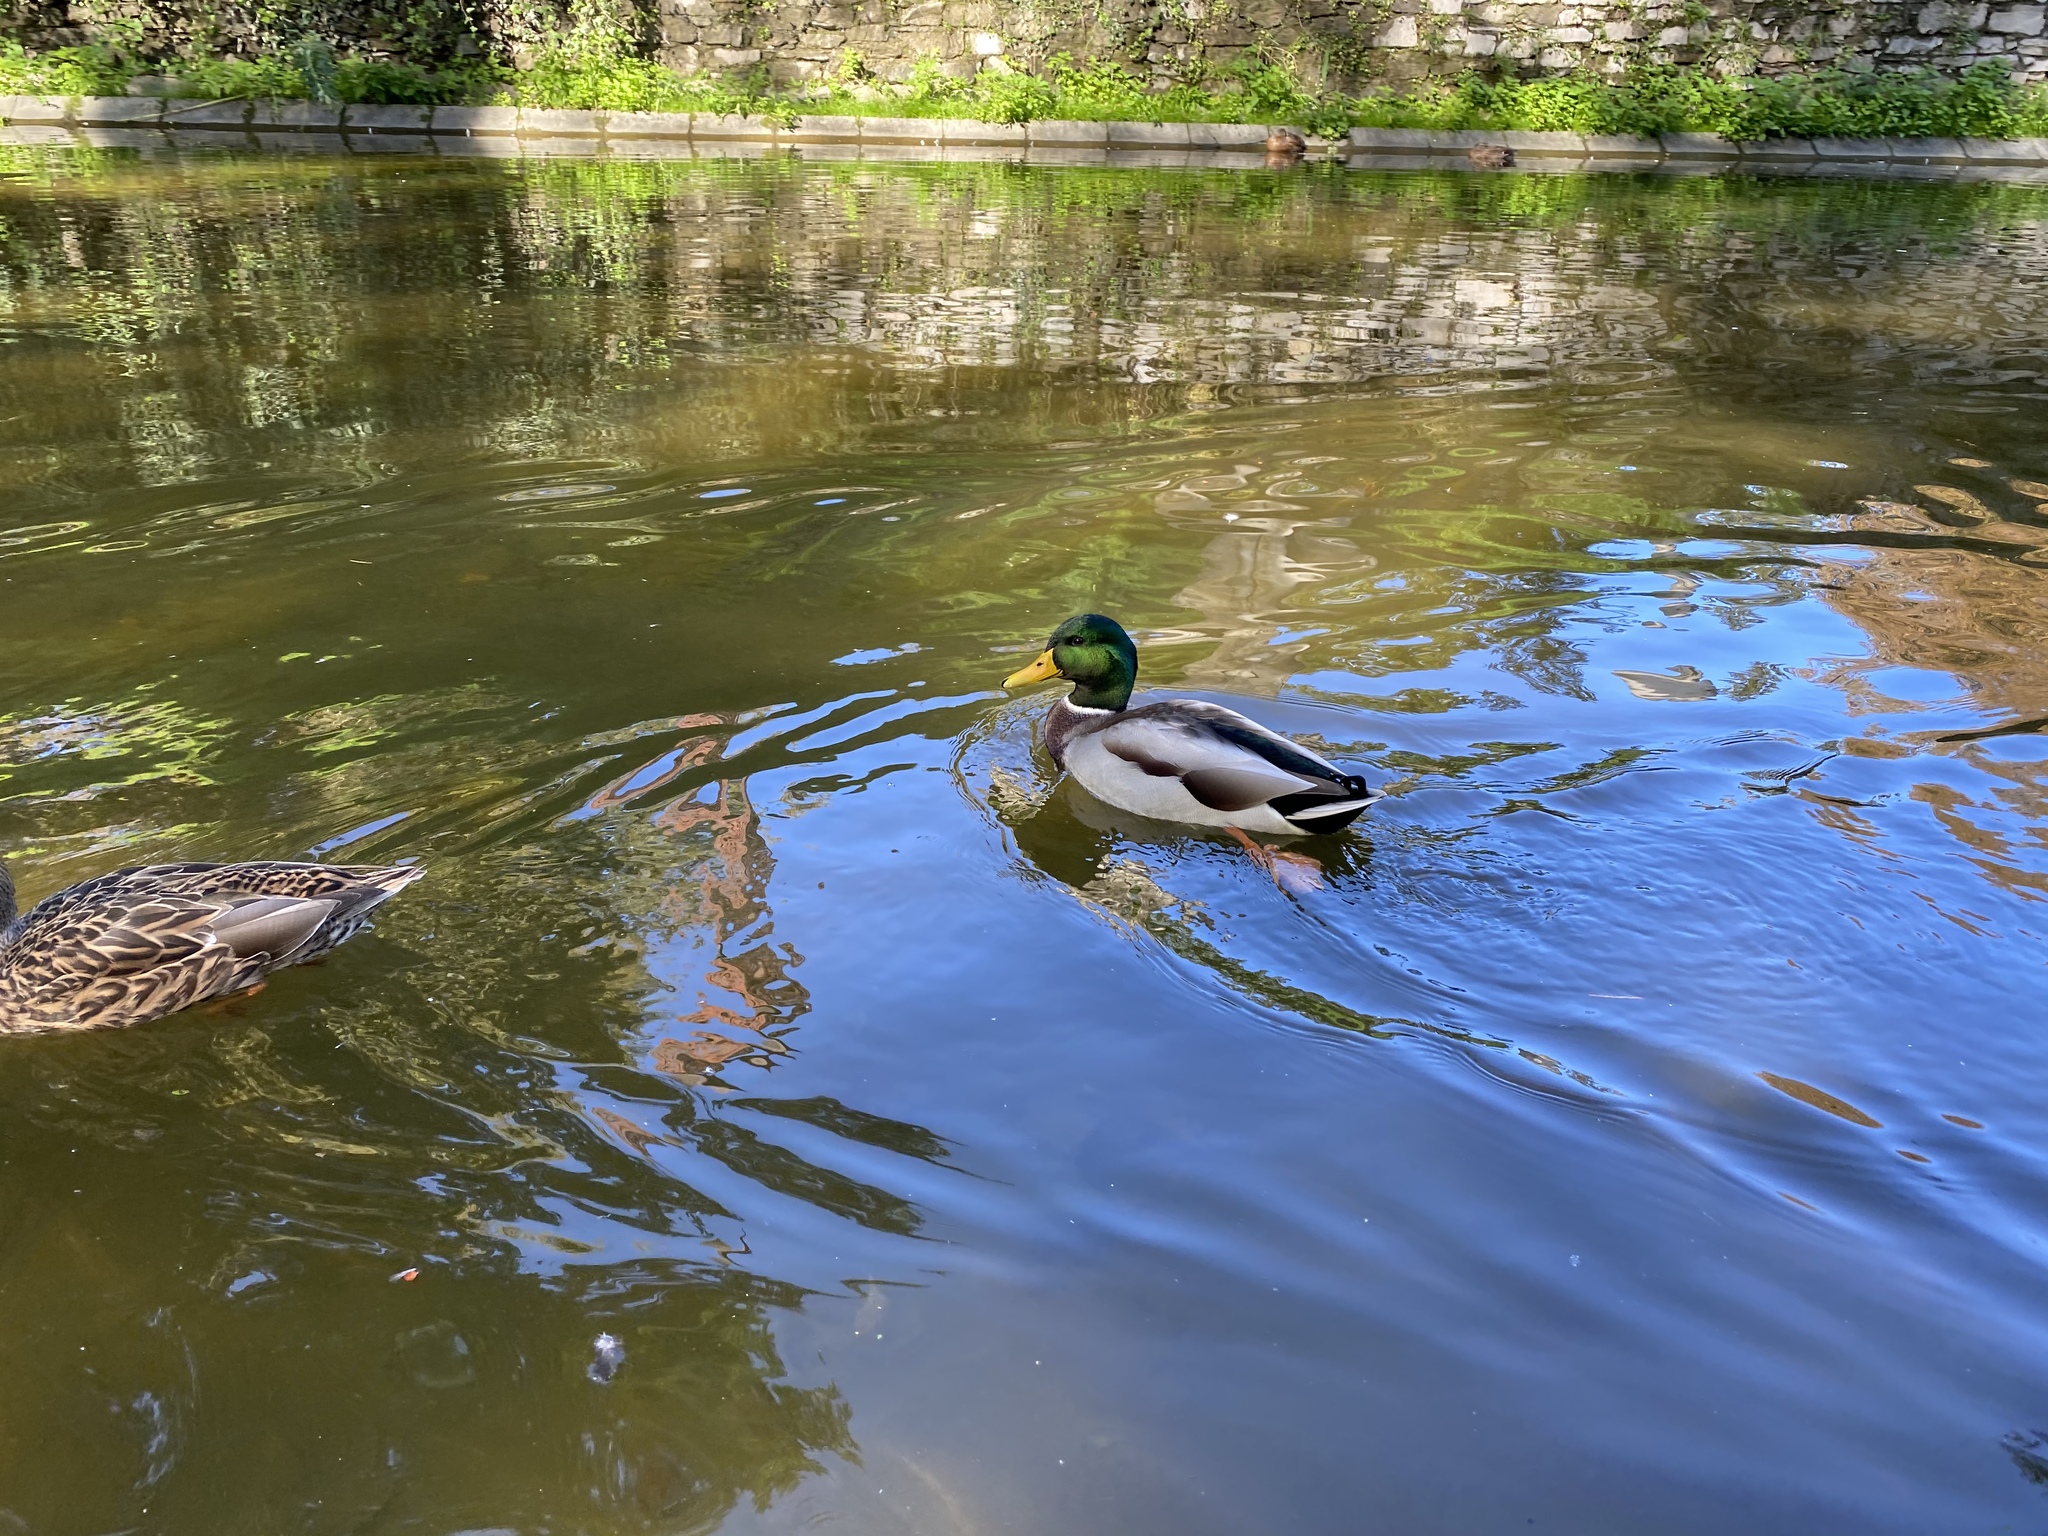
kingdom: Animalia
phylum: Chordata
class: Aves
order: Anseriformes
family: Anatidae
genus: Anas
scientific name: Anas platyrhynchos
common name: Mallard
